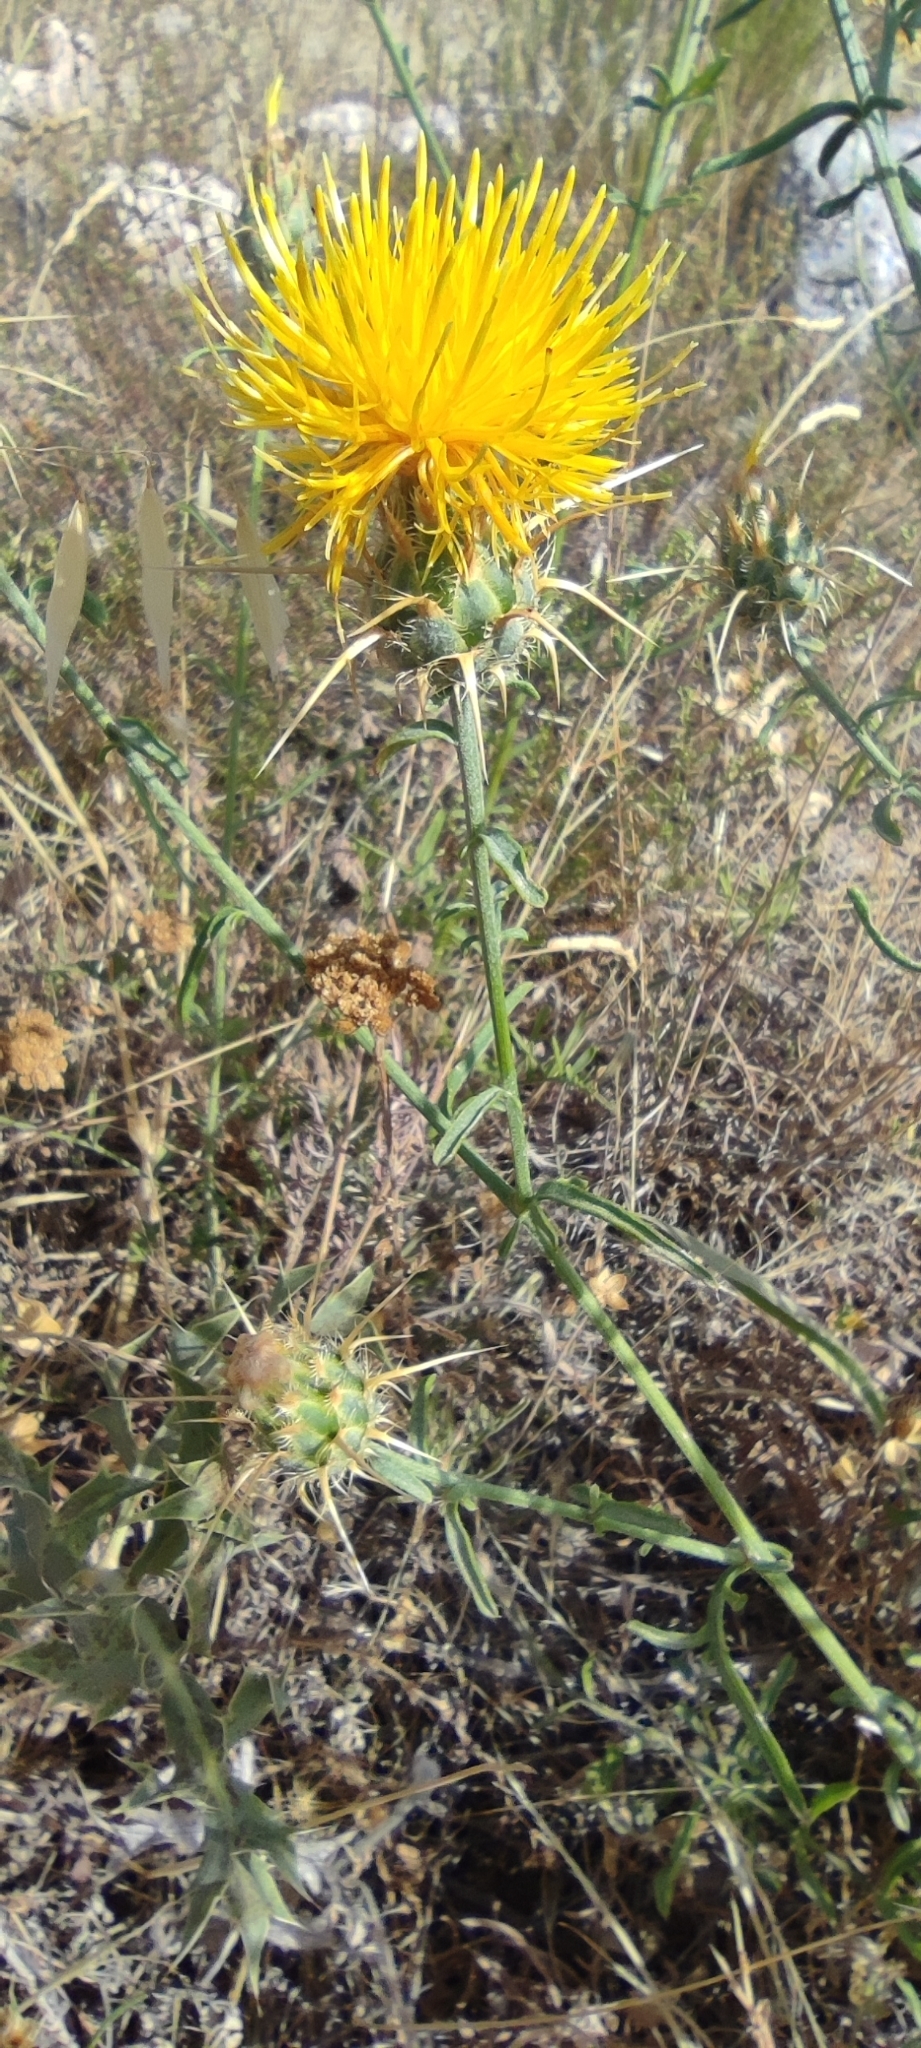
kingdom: Plantae
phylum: Tracheophyta
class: Magnoliopsida
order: Asterales
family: Asteraceae
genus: Centaurea
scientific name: Centaurea solstitialis
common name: Yellow star-thistle
